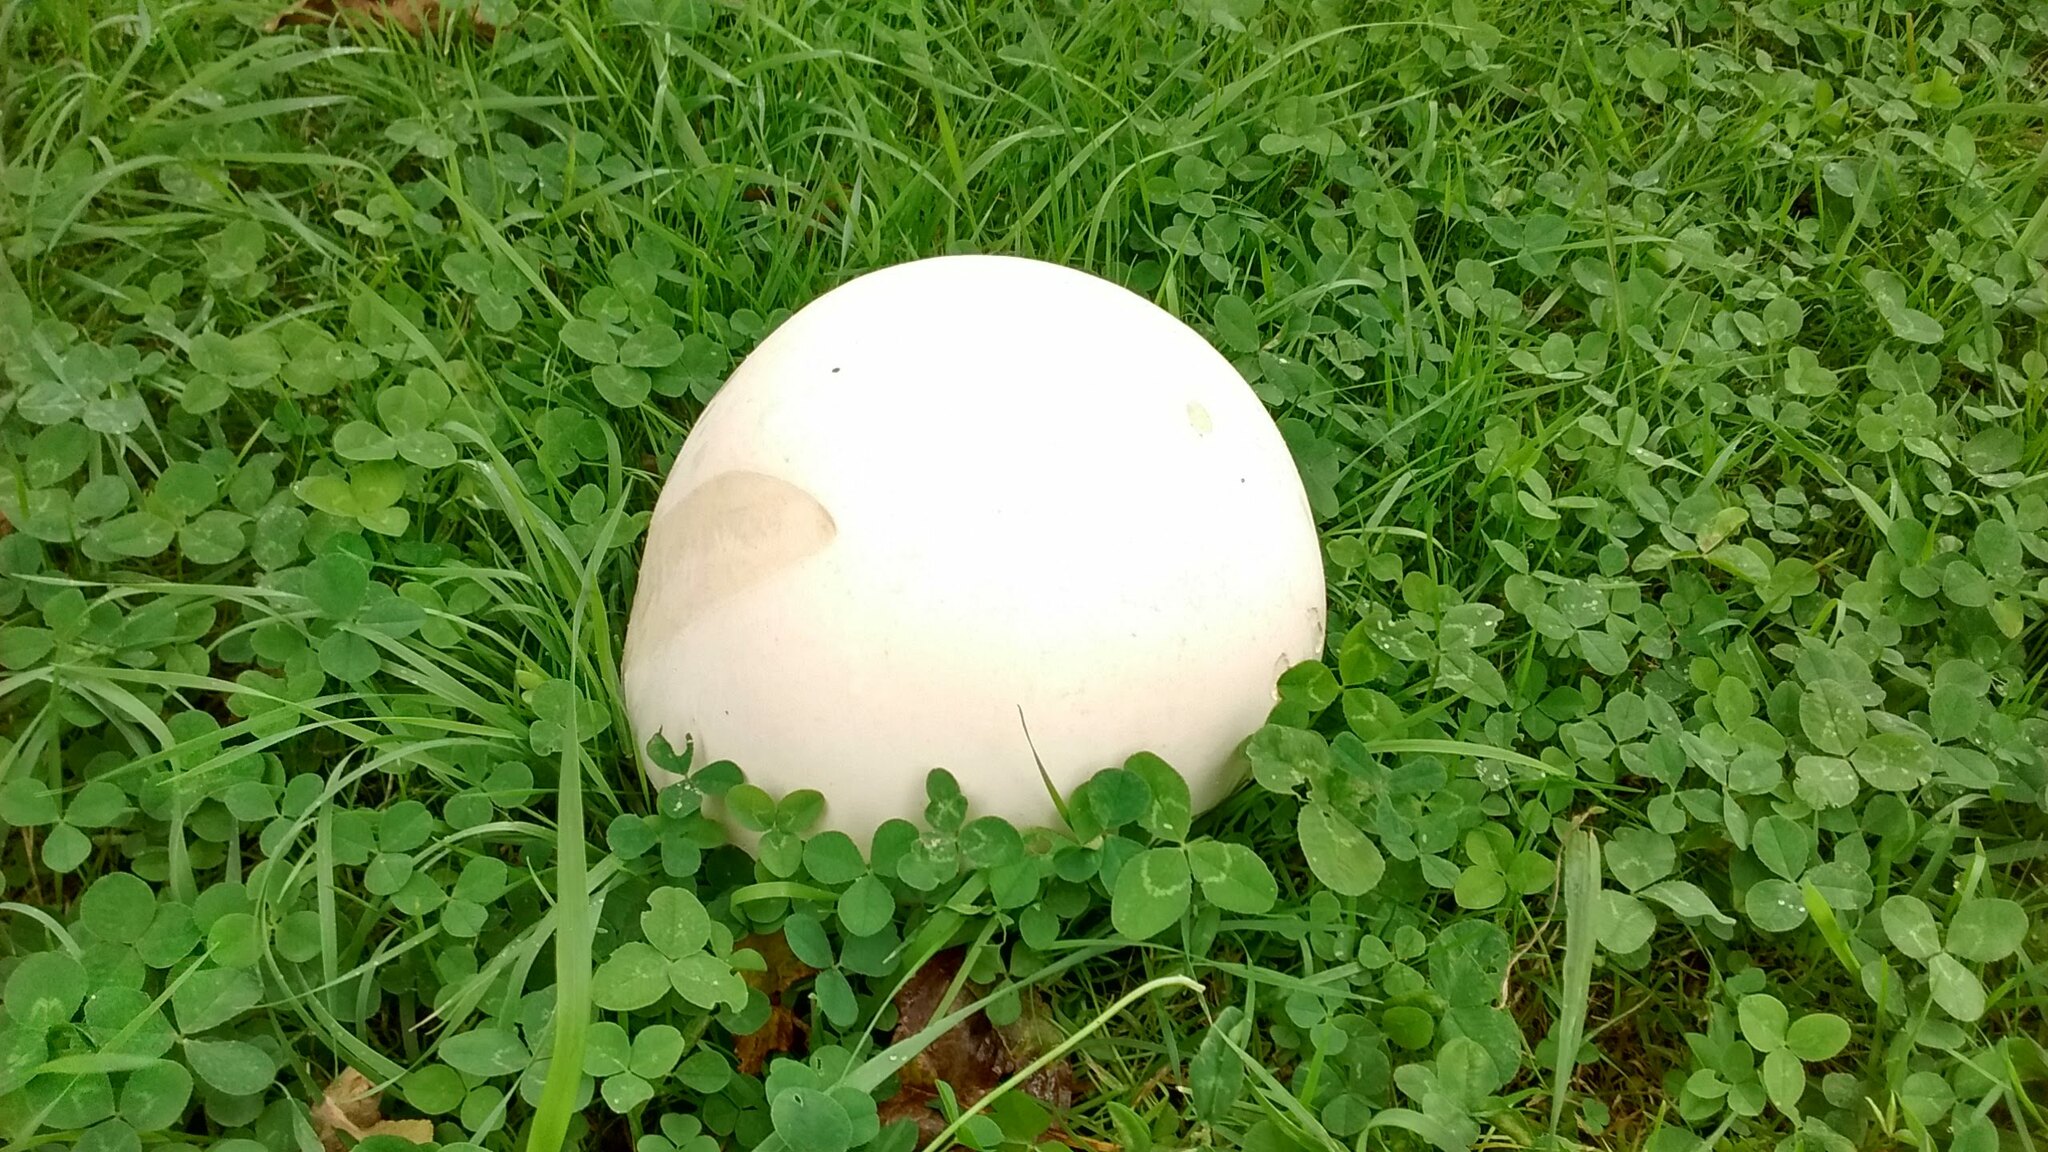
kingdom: Fungi
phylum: Basidiomycota
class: Agaricomycetes
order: Agaricales
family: Lycoperdaceae
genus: Calvatia
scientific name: Calvatia gigantea
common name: Giant puffball
